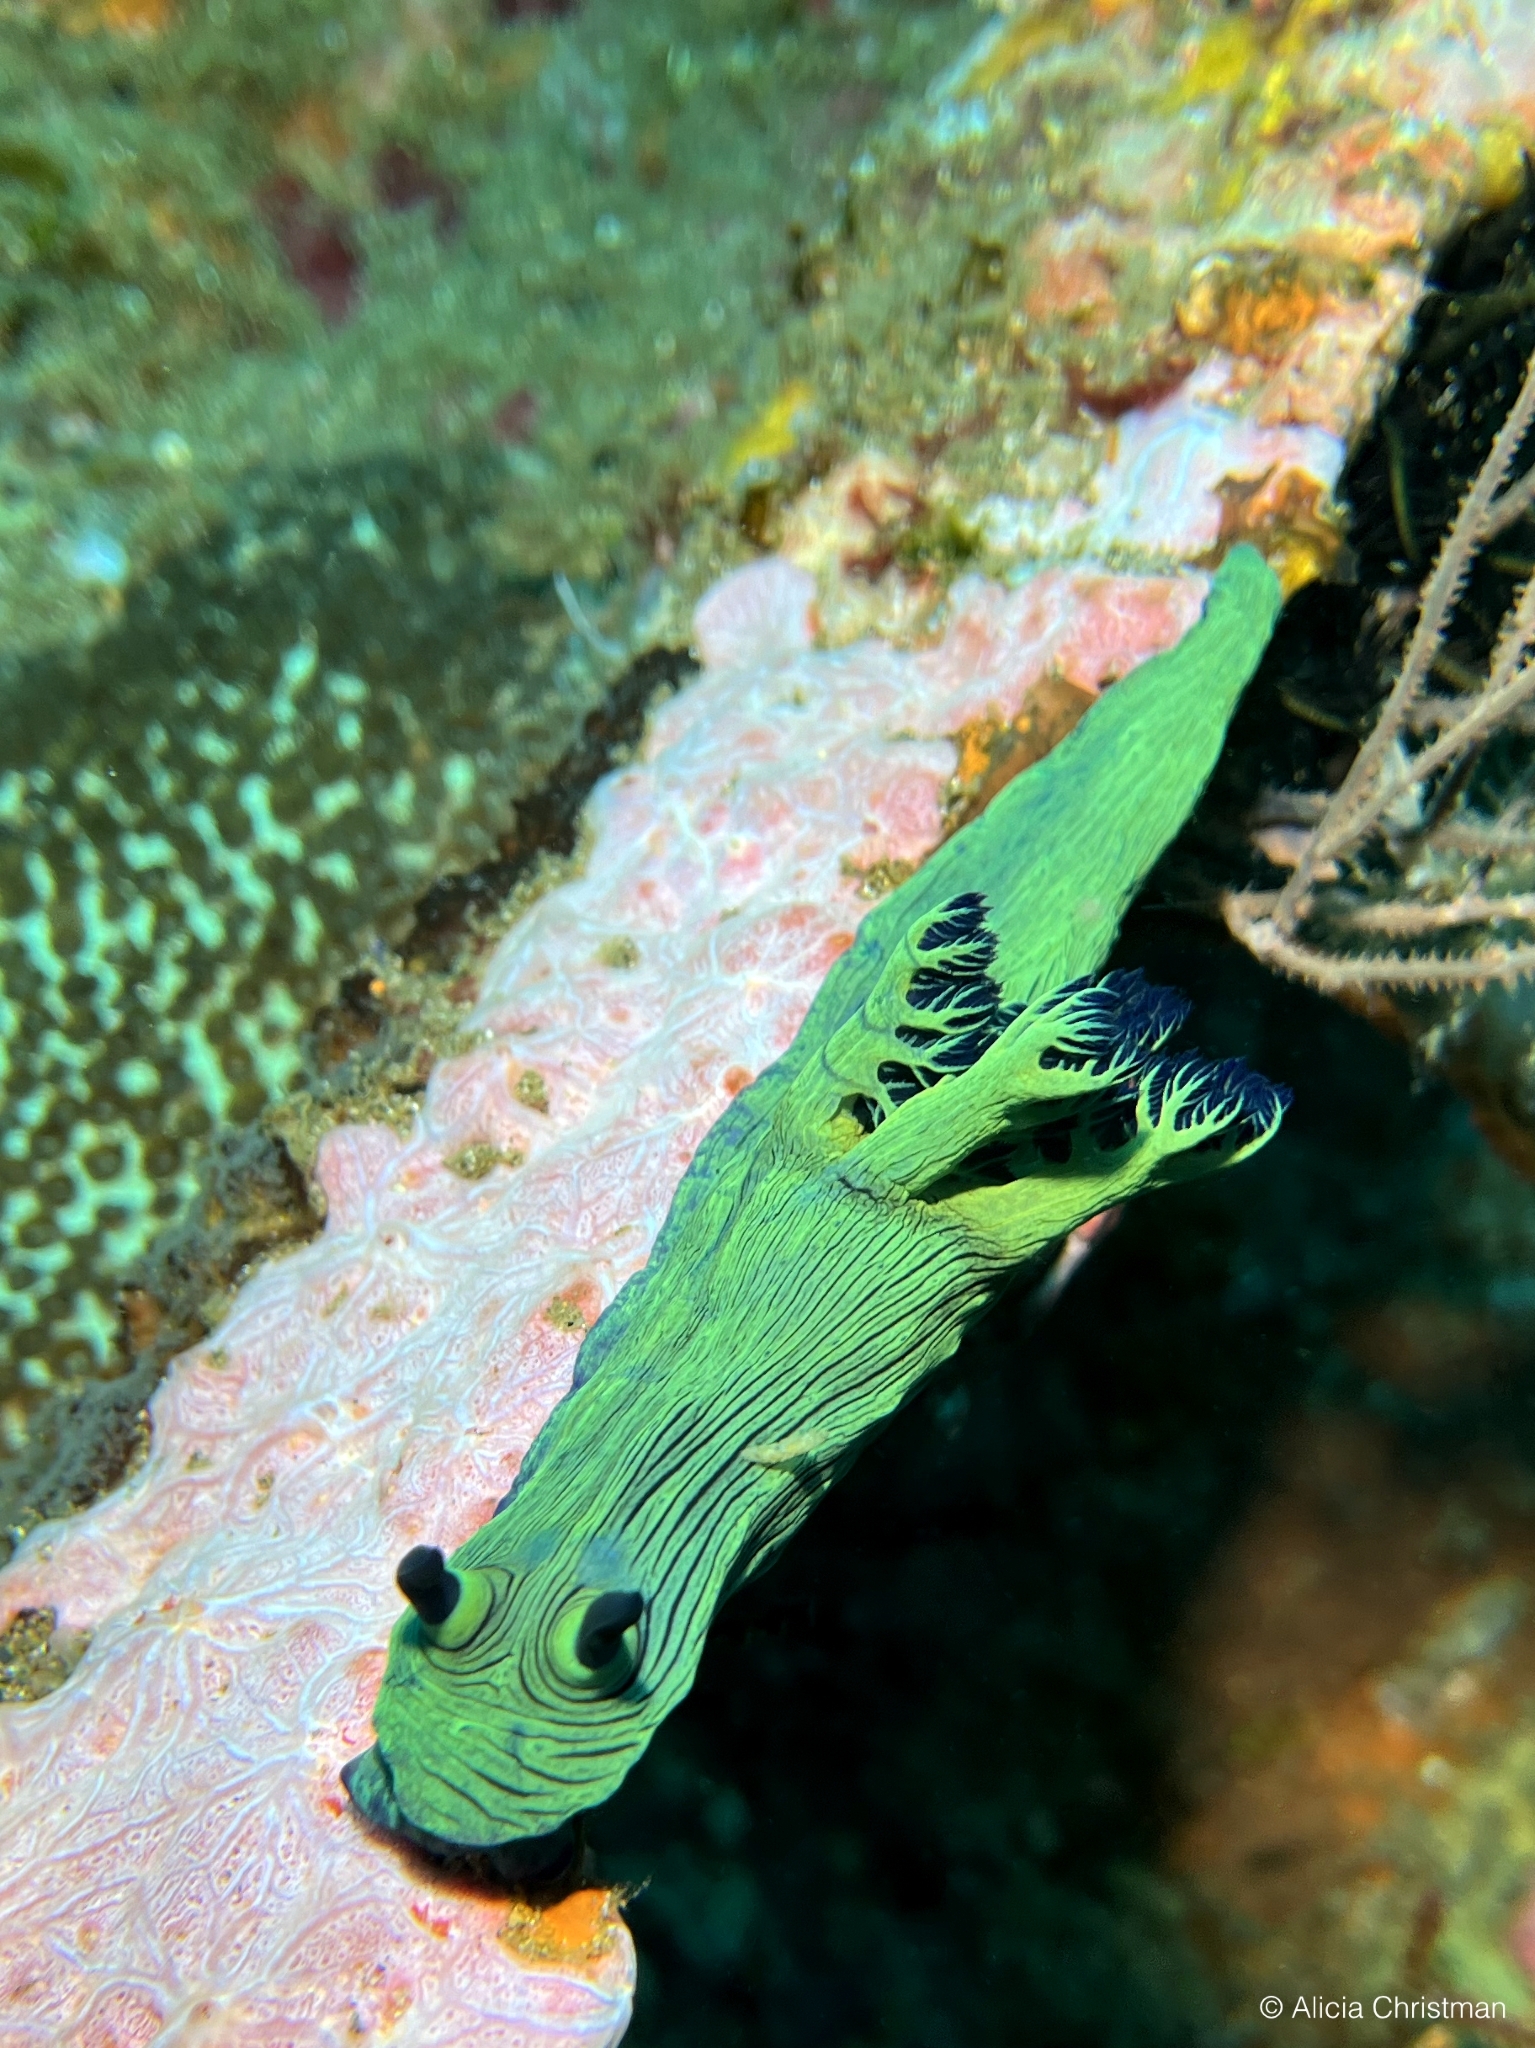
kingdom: Animalia
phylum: Mollusca
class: Gastropoda
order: Nudibranchia
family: Polyceridae
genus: Nembrotha
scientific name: Nembrotha milleri
